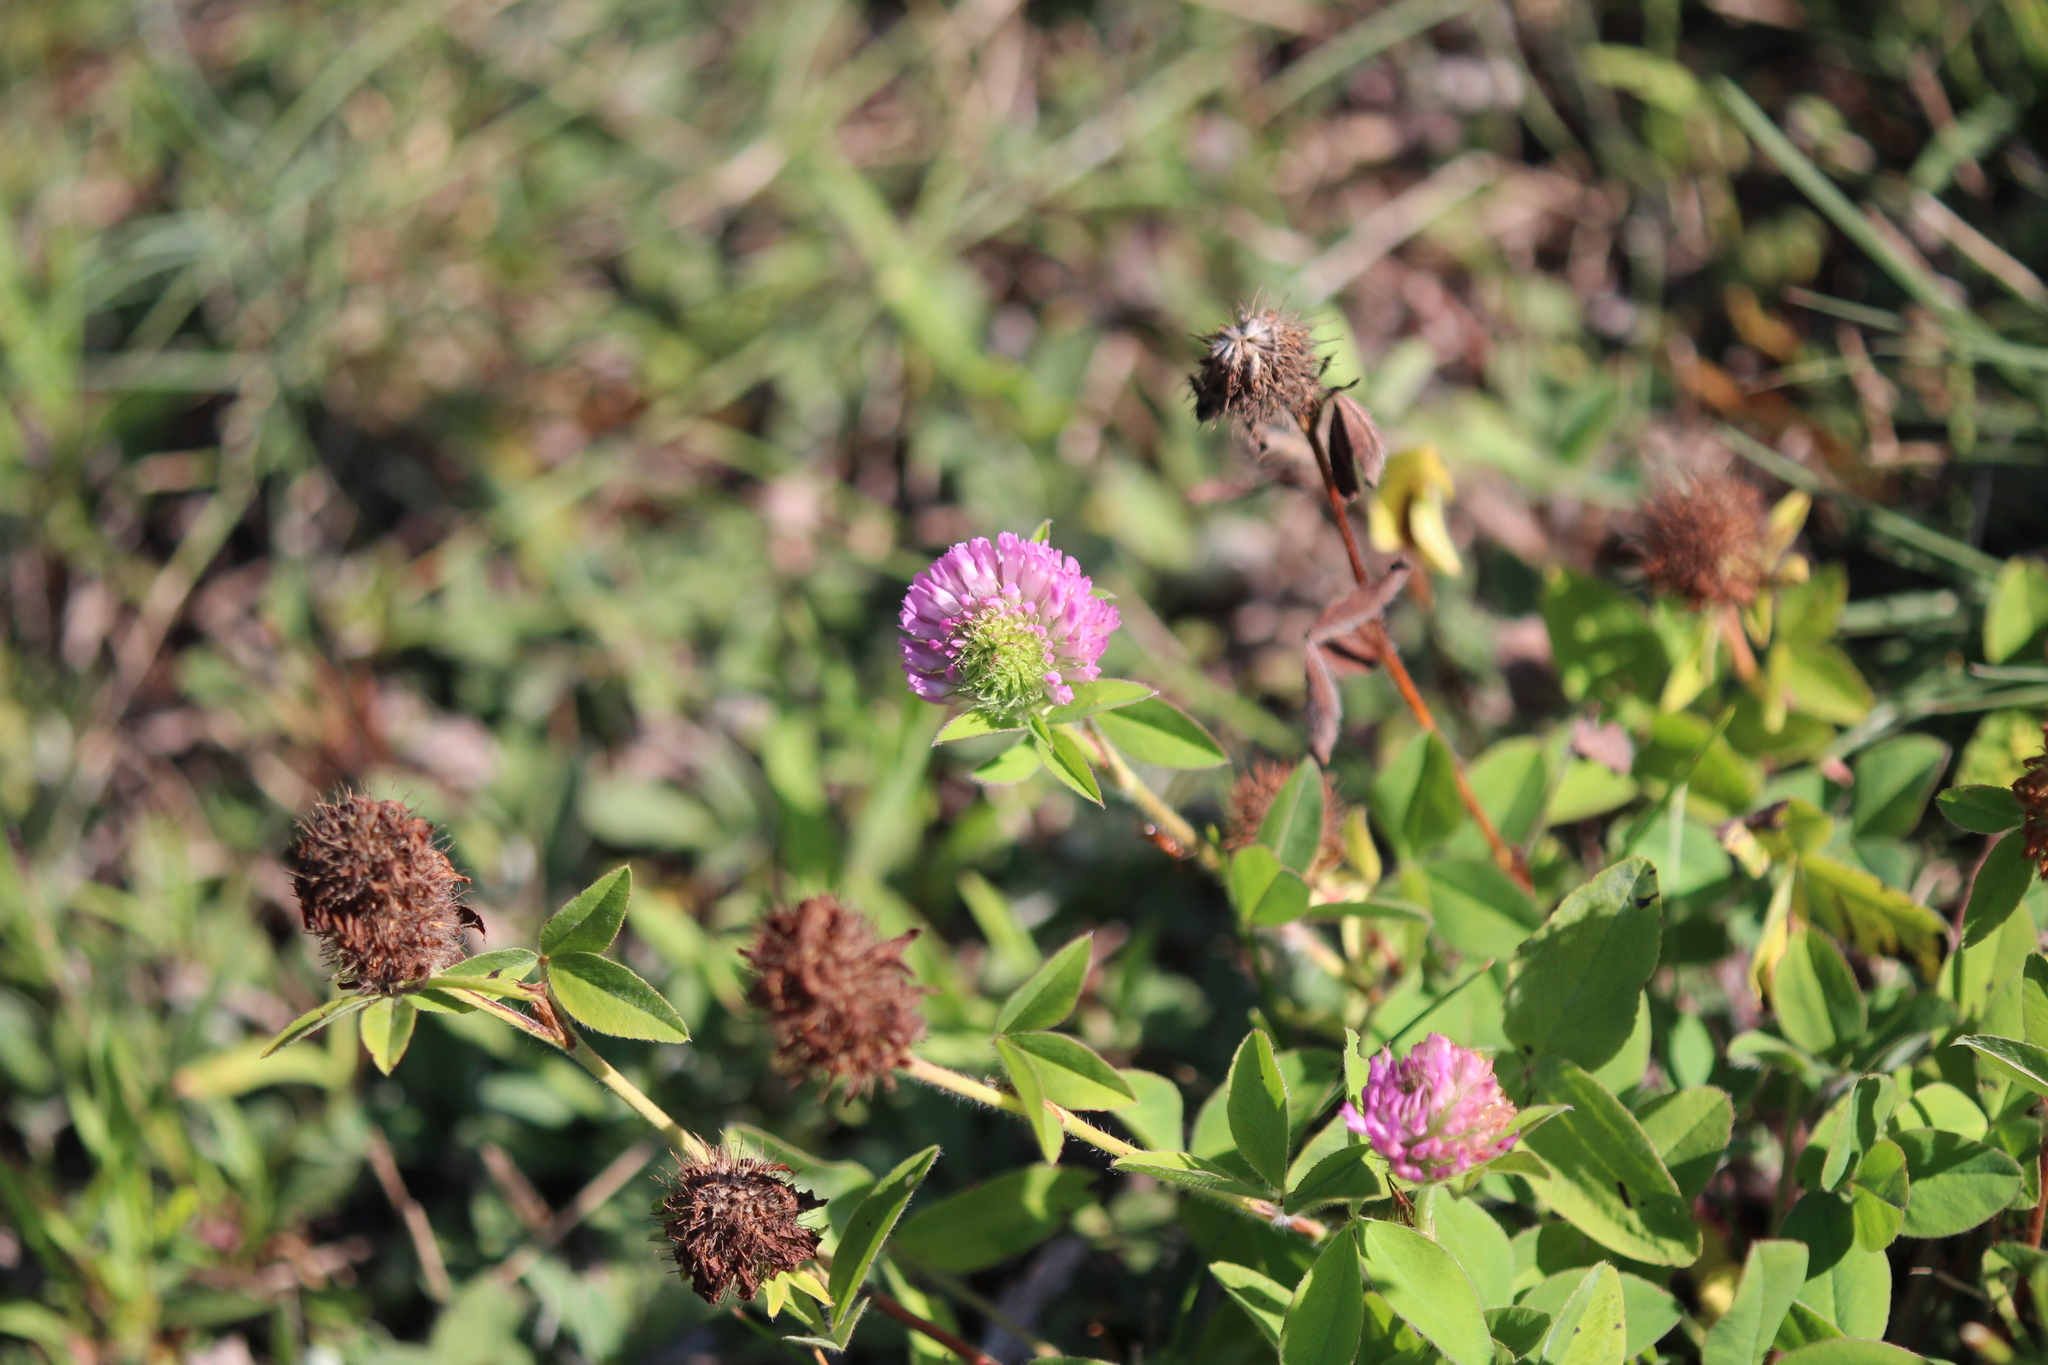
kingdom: Plantae
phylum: Tracheophyta
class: Magnoliopsida
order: Fabales
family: Fabaceae
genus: Trifolium
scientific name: Trifolium pratense
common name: Red clover
